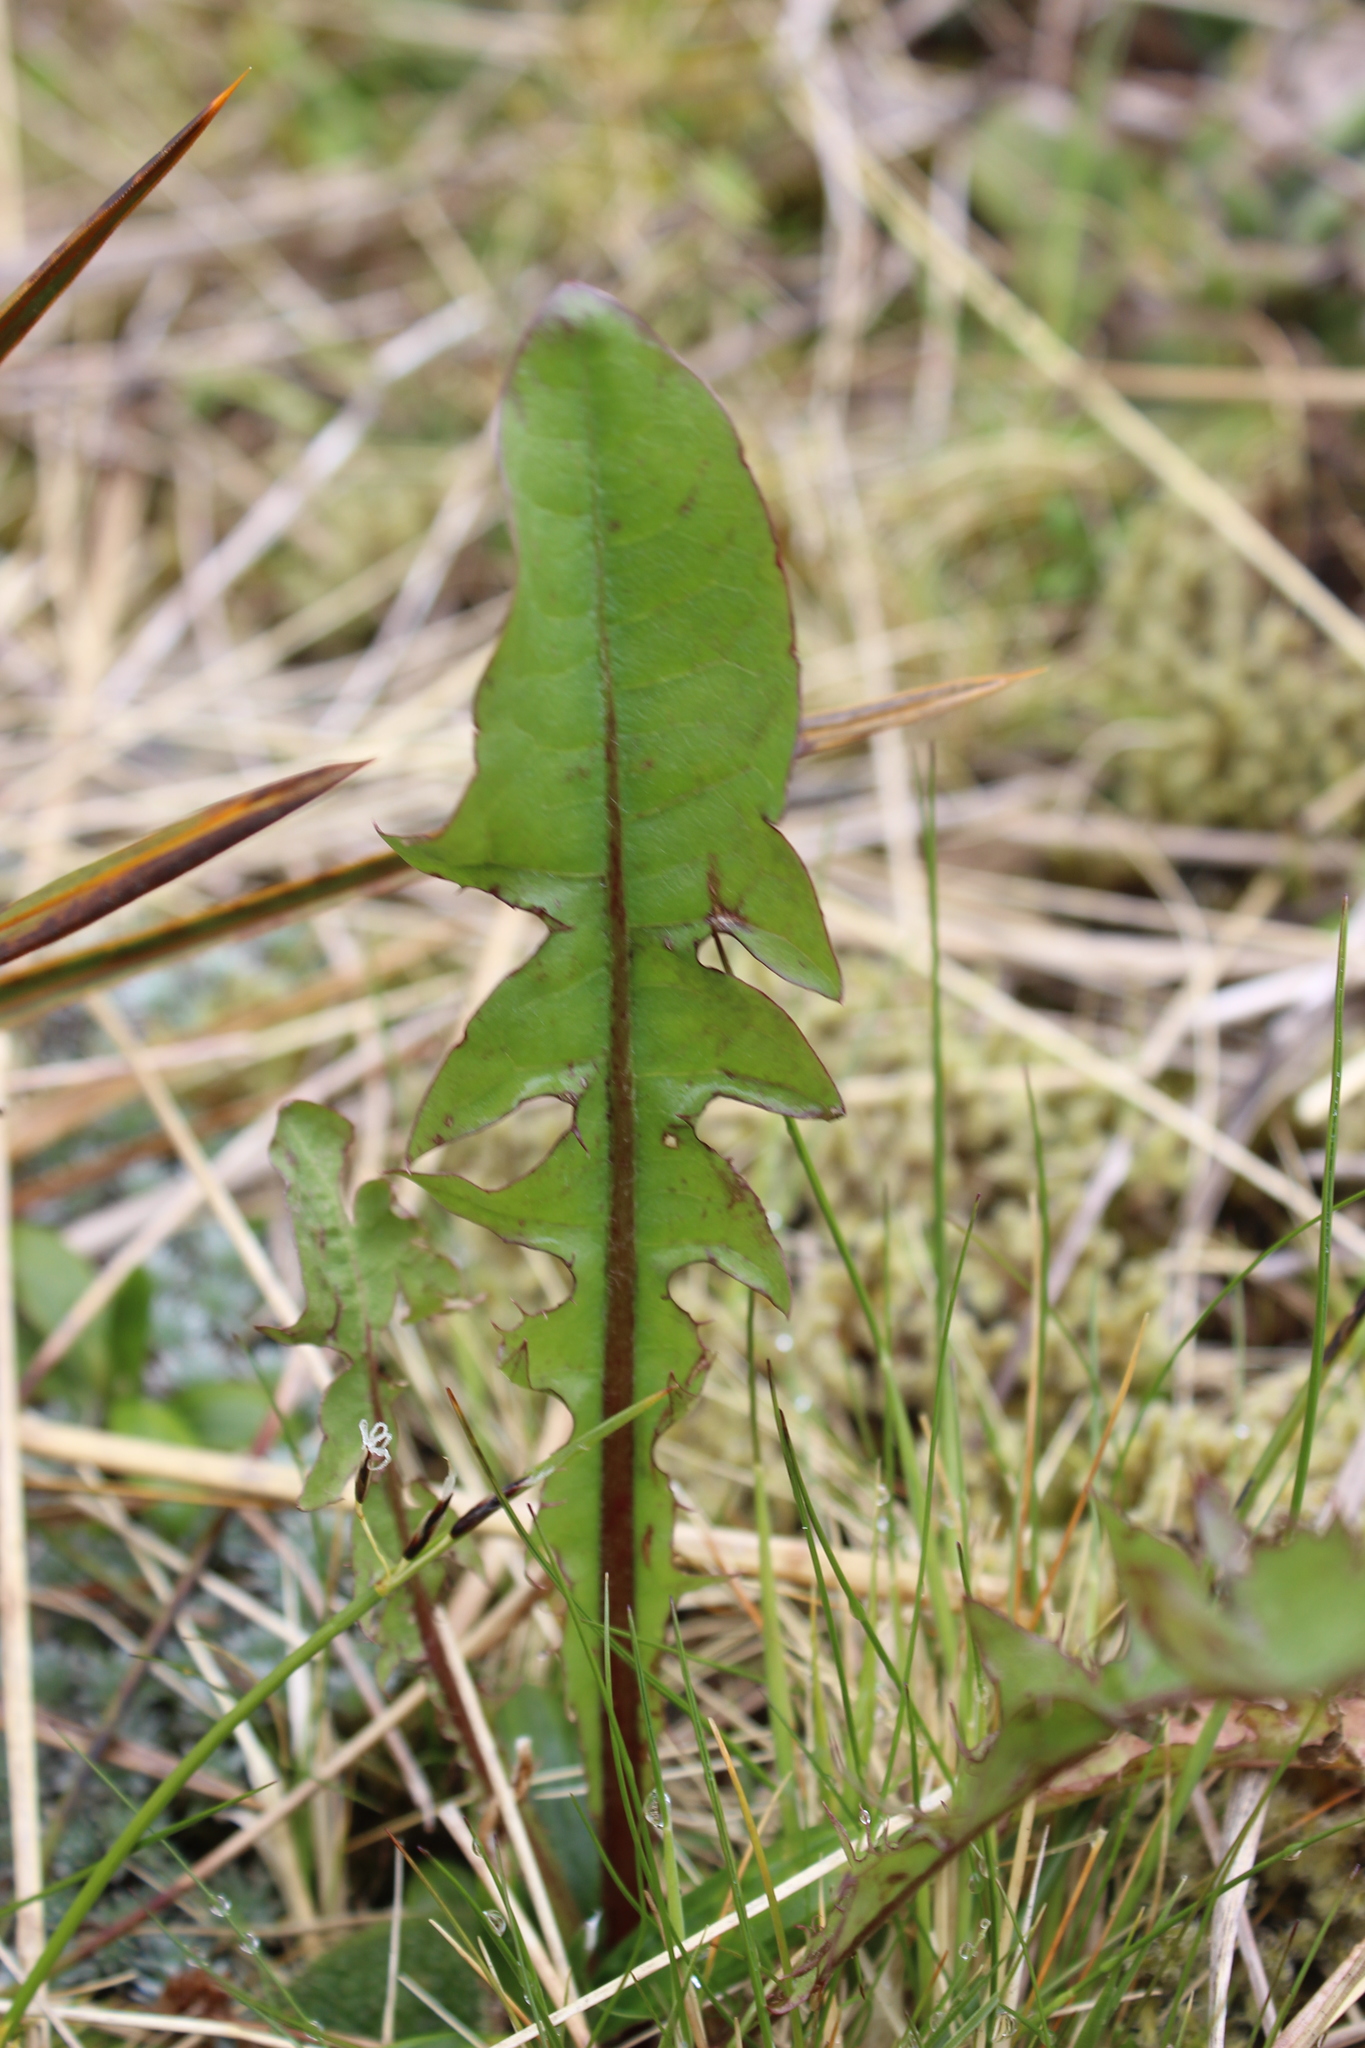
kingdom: Plantae
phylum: Tracheophyta
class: Magnoliopsida
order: Asterales
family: Asteraceae
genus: Taraxacum
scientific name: Taraxacum officinale
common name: Common dandelion
